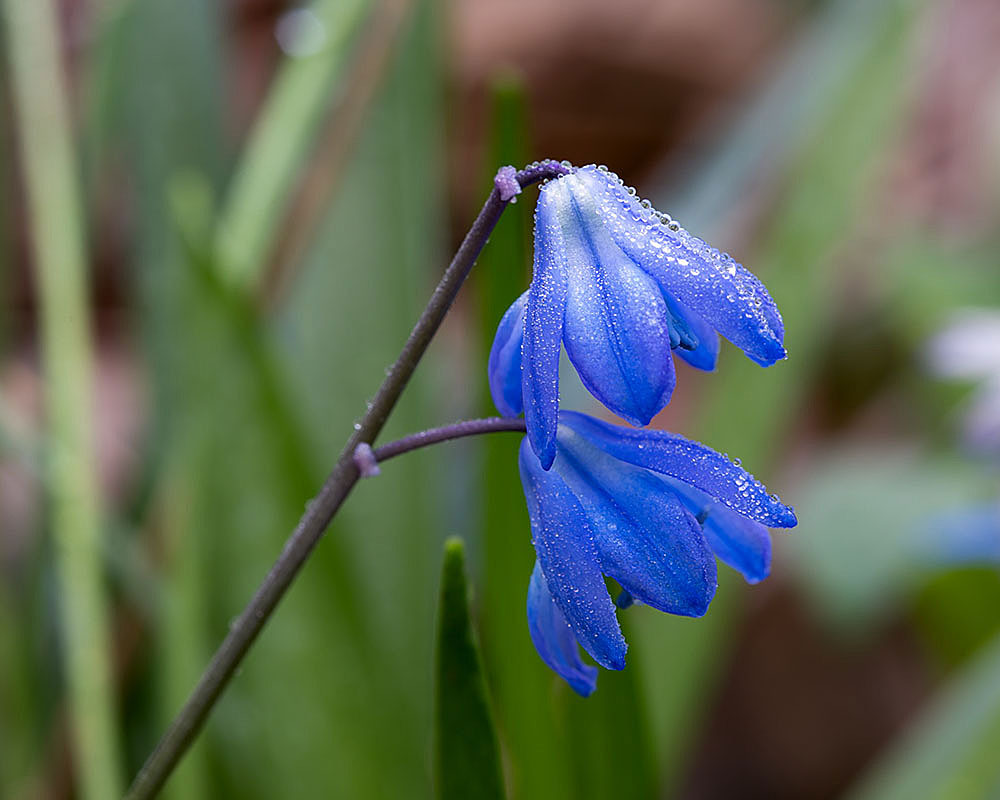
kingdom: Plantae
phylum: Tracheophyta
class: Liliopsida
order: Asparagales
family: Asparagaceae
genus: Scilla
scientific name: Scilla siberica
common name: Siberian squill
